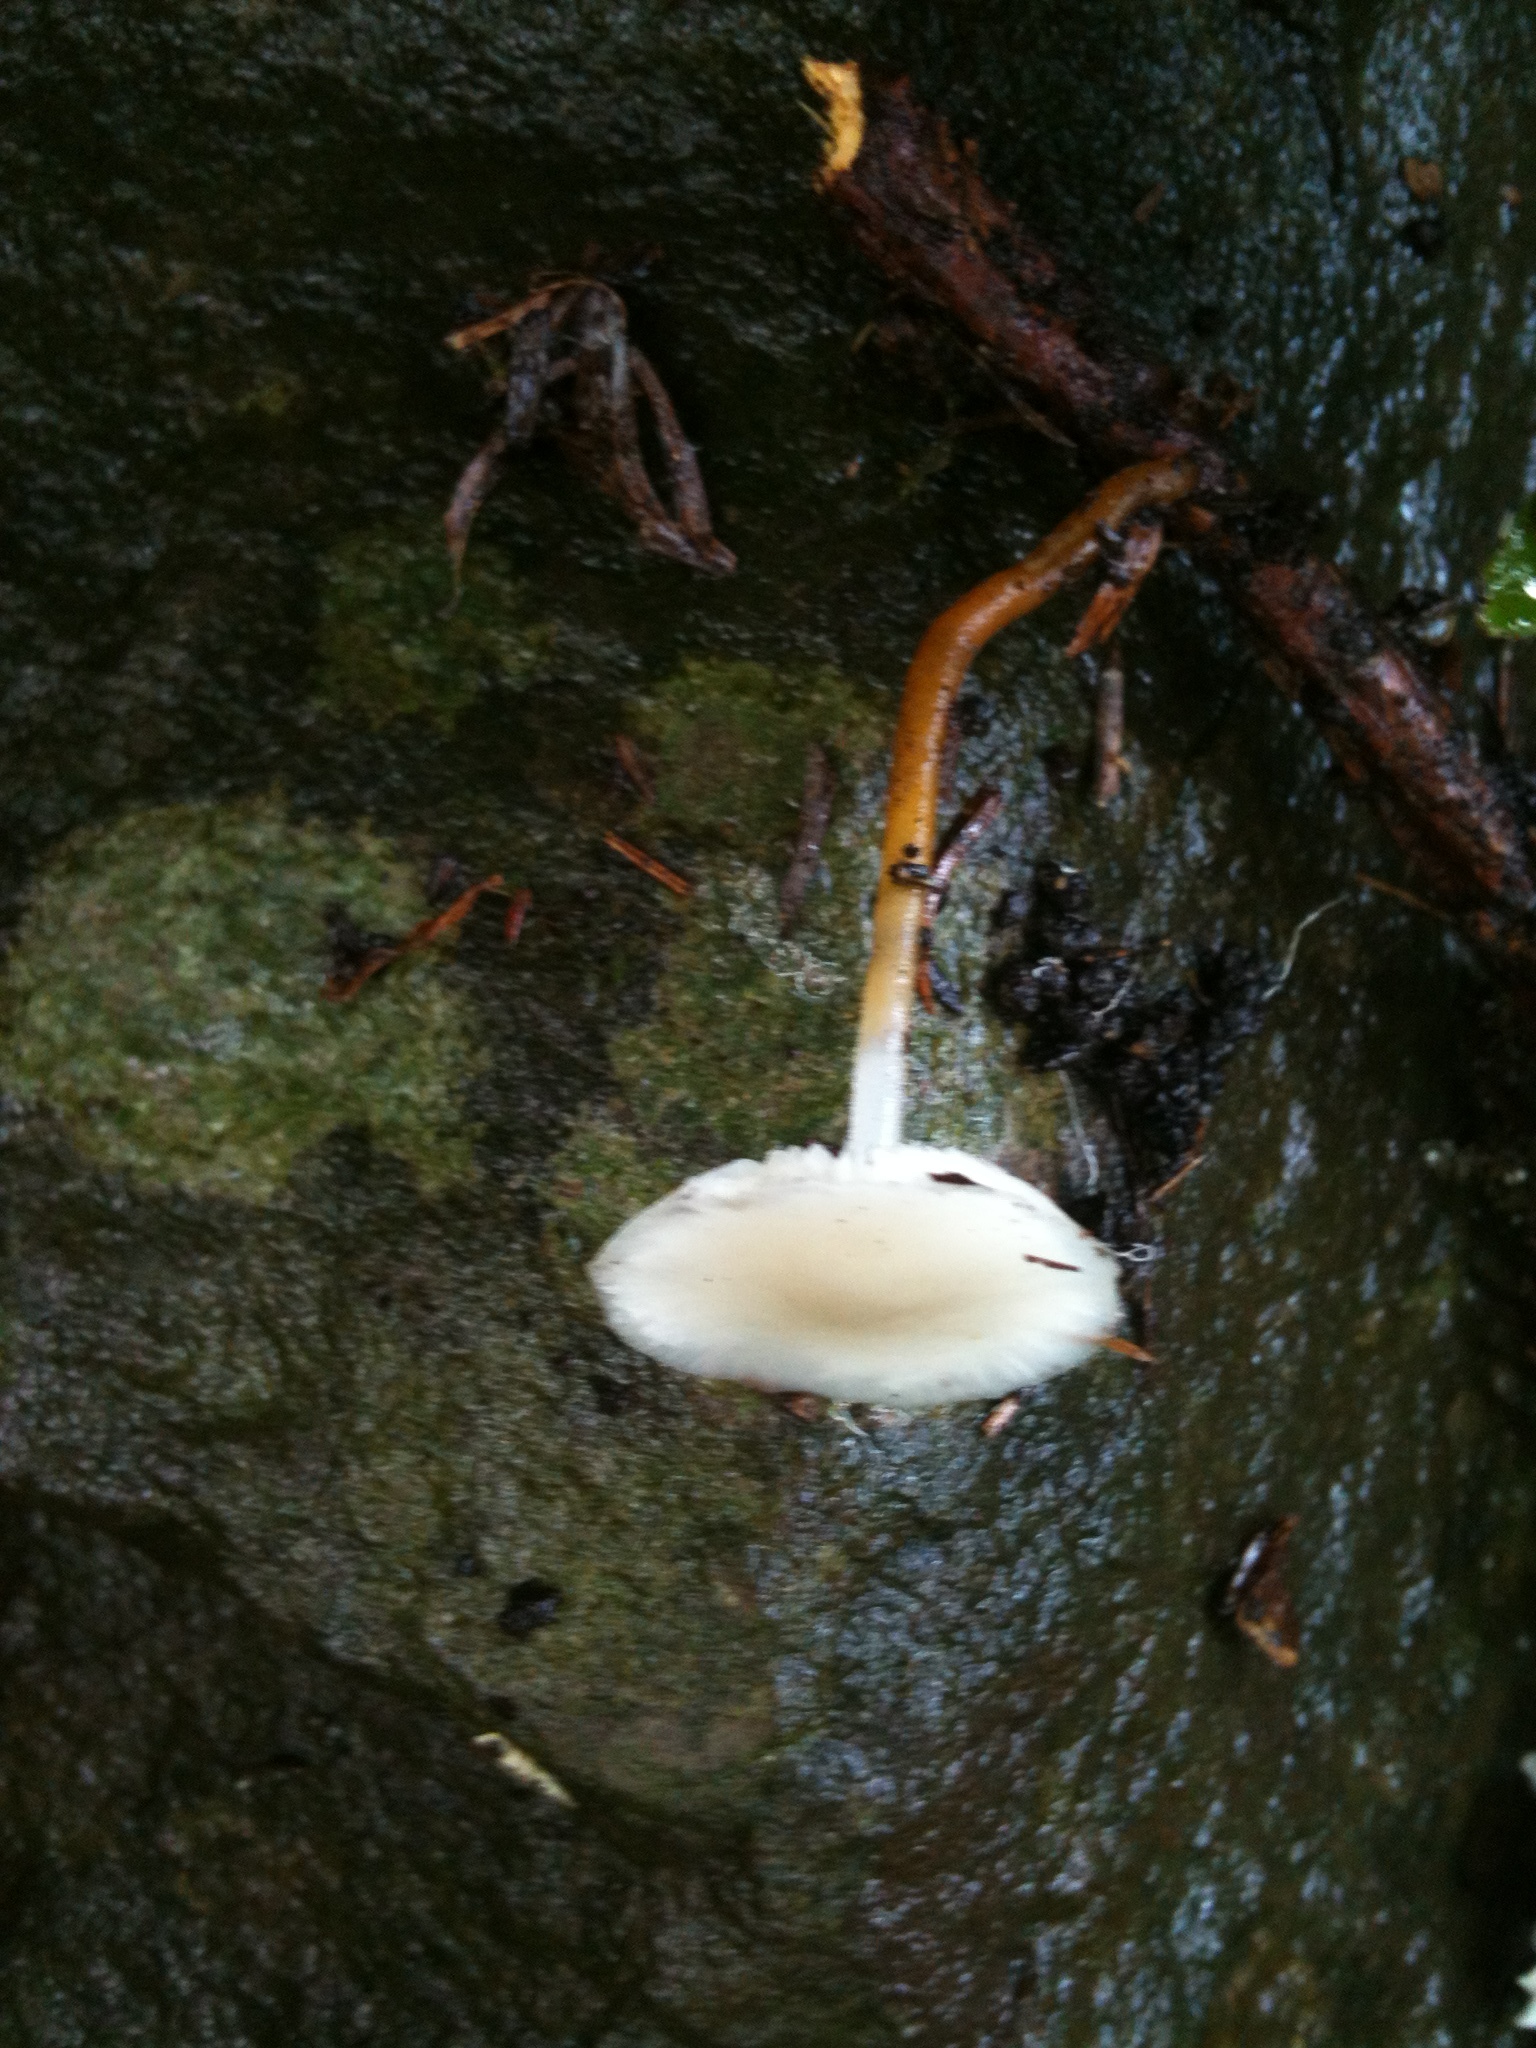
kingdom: Fungi
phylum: Basidiomycota
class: Agaricomycetes
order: Agaricales
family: Physalacriaceae
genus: Strobilurus
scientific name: Strobilurus ohshimae
